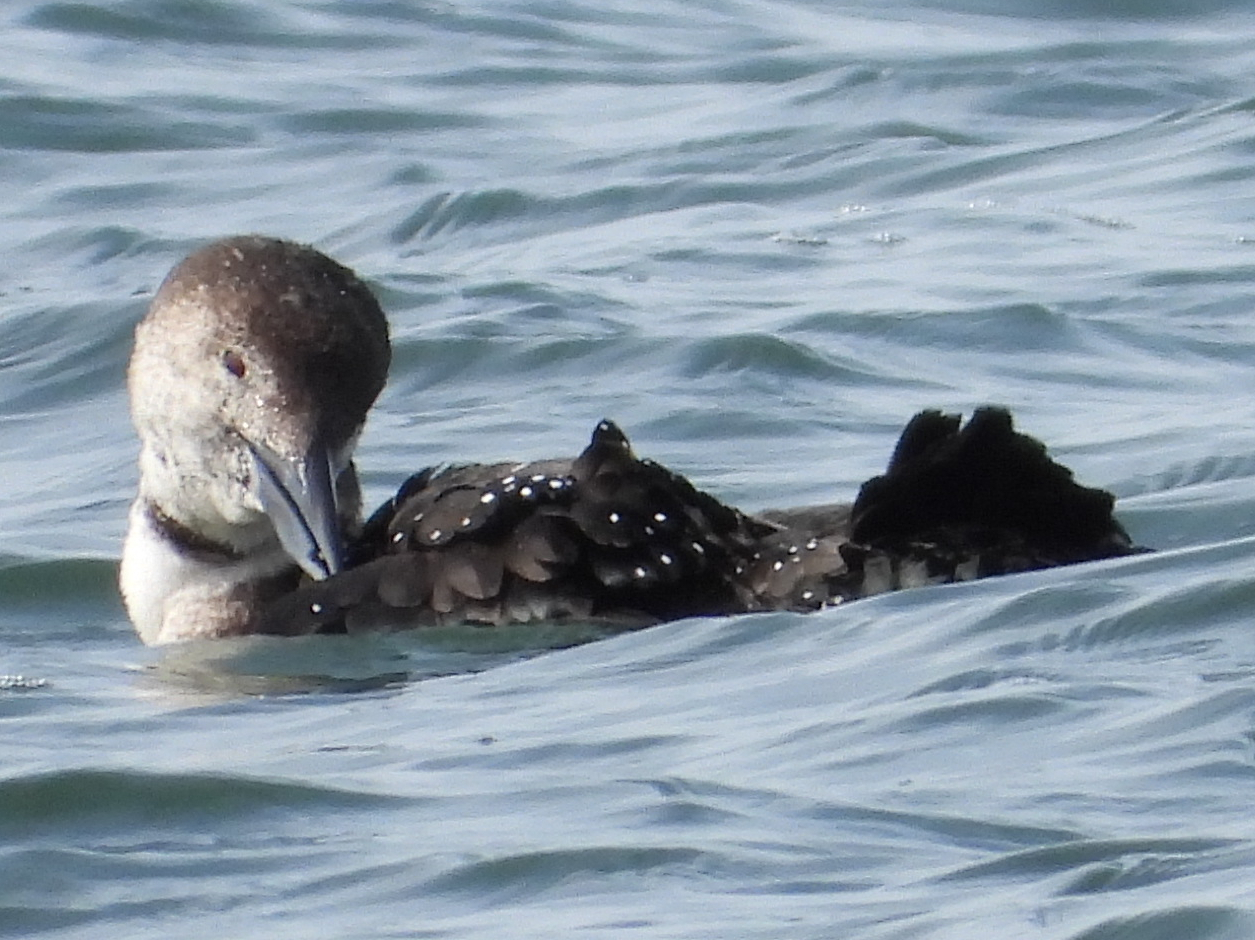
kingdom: Animalia
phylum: Chordata
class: Aves
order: Gaviiformes
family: Gaviidae
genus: Gavia
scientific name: Gavia immer
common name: Common loon
